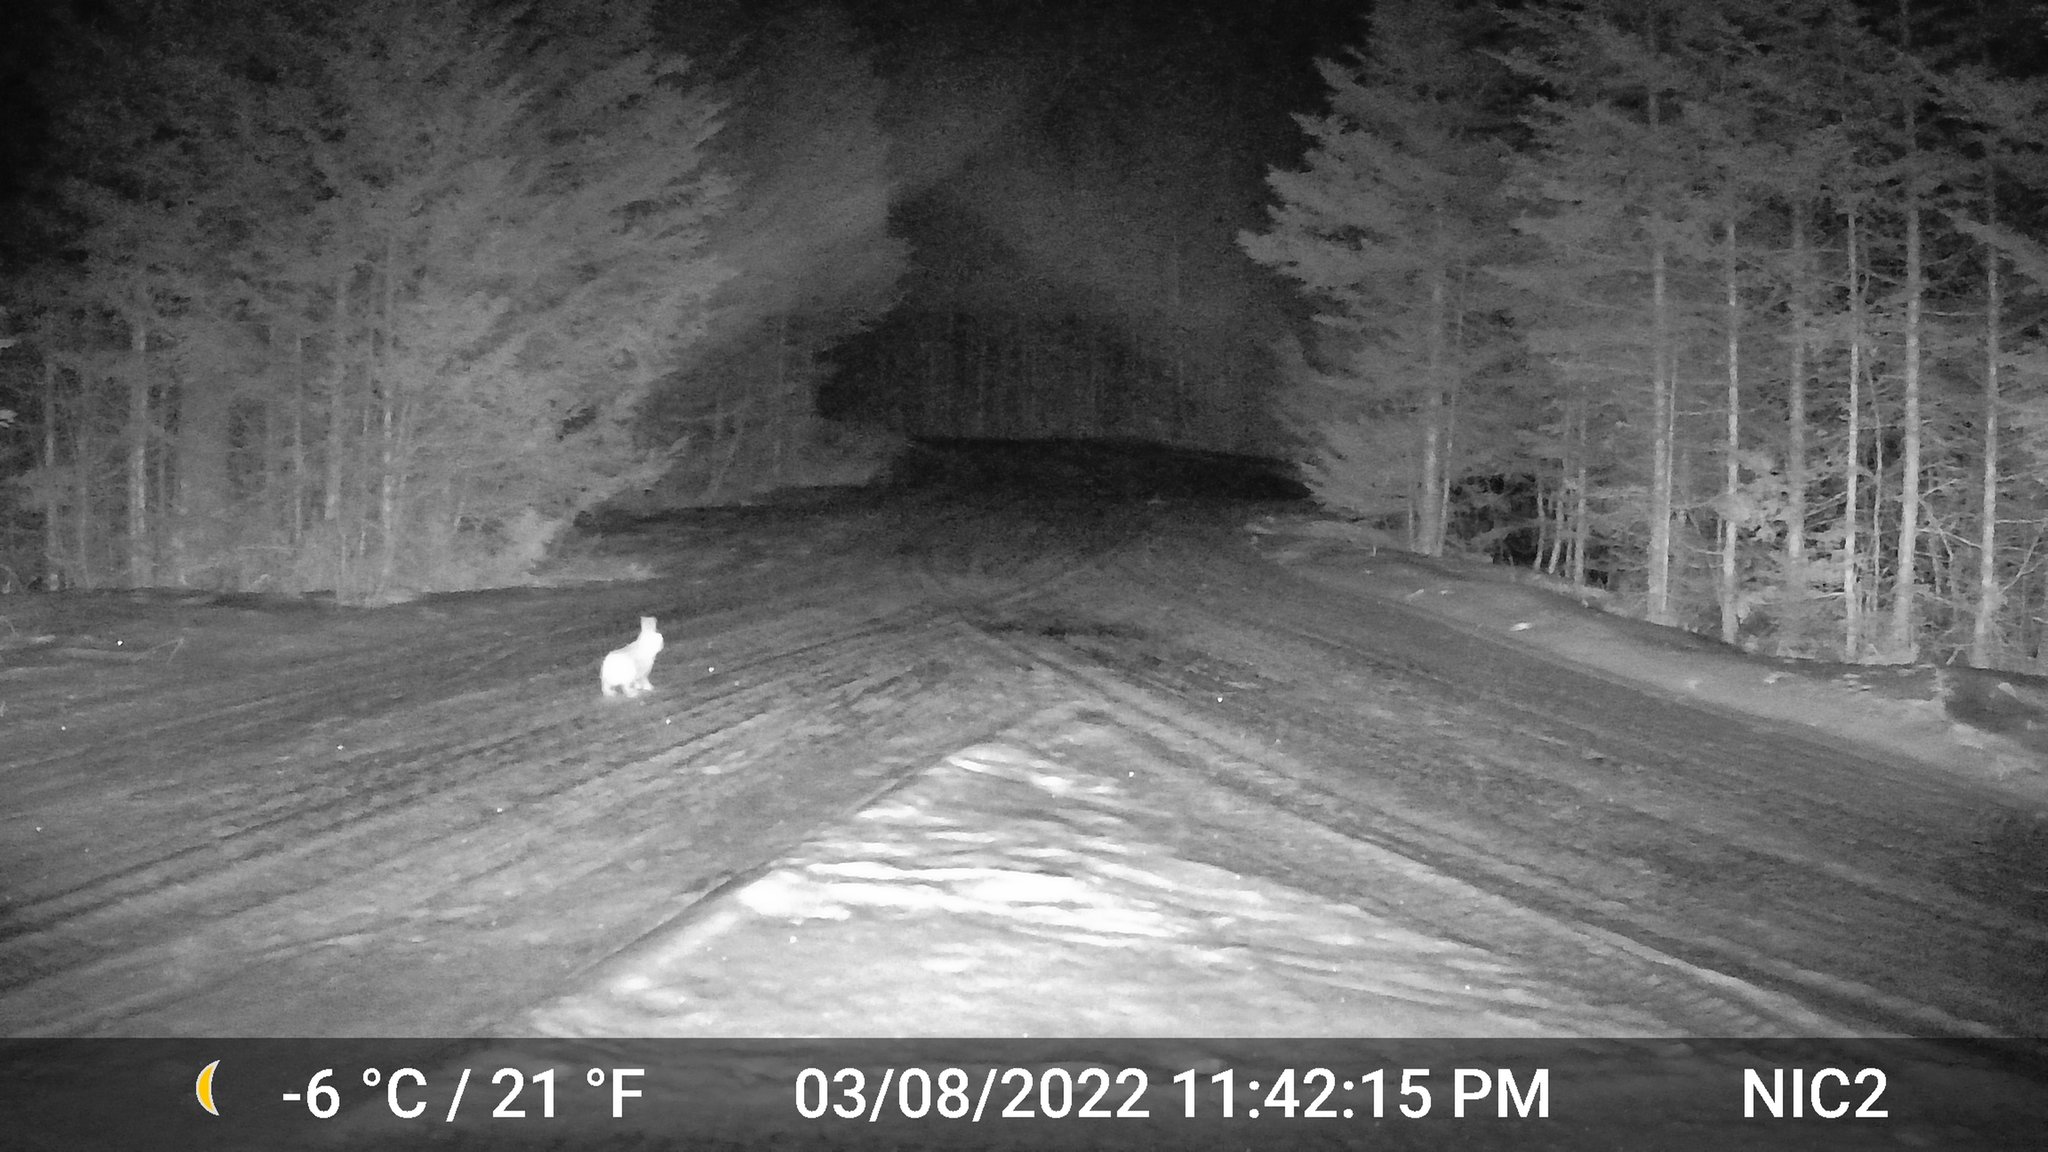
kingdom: Animalia
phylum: Chordata
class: Mammalia
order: Lagomorpha
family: Leporidae
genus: Lepus
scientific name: Lepus americanus
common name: Snowshoe hare
